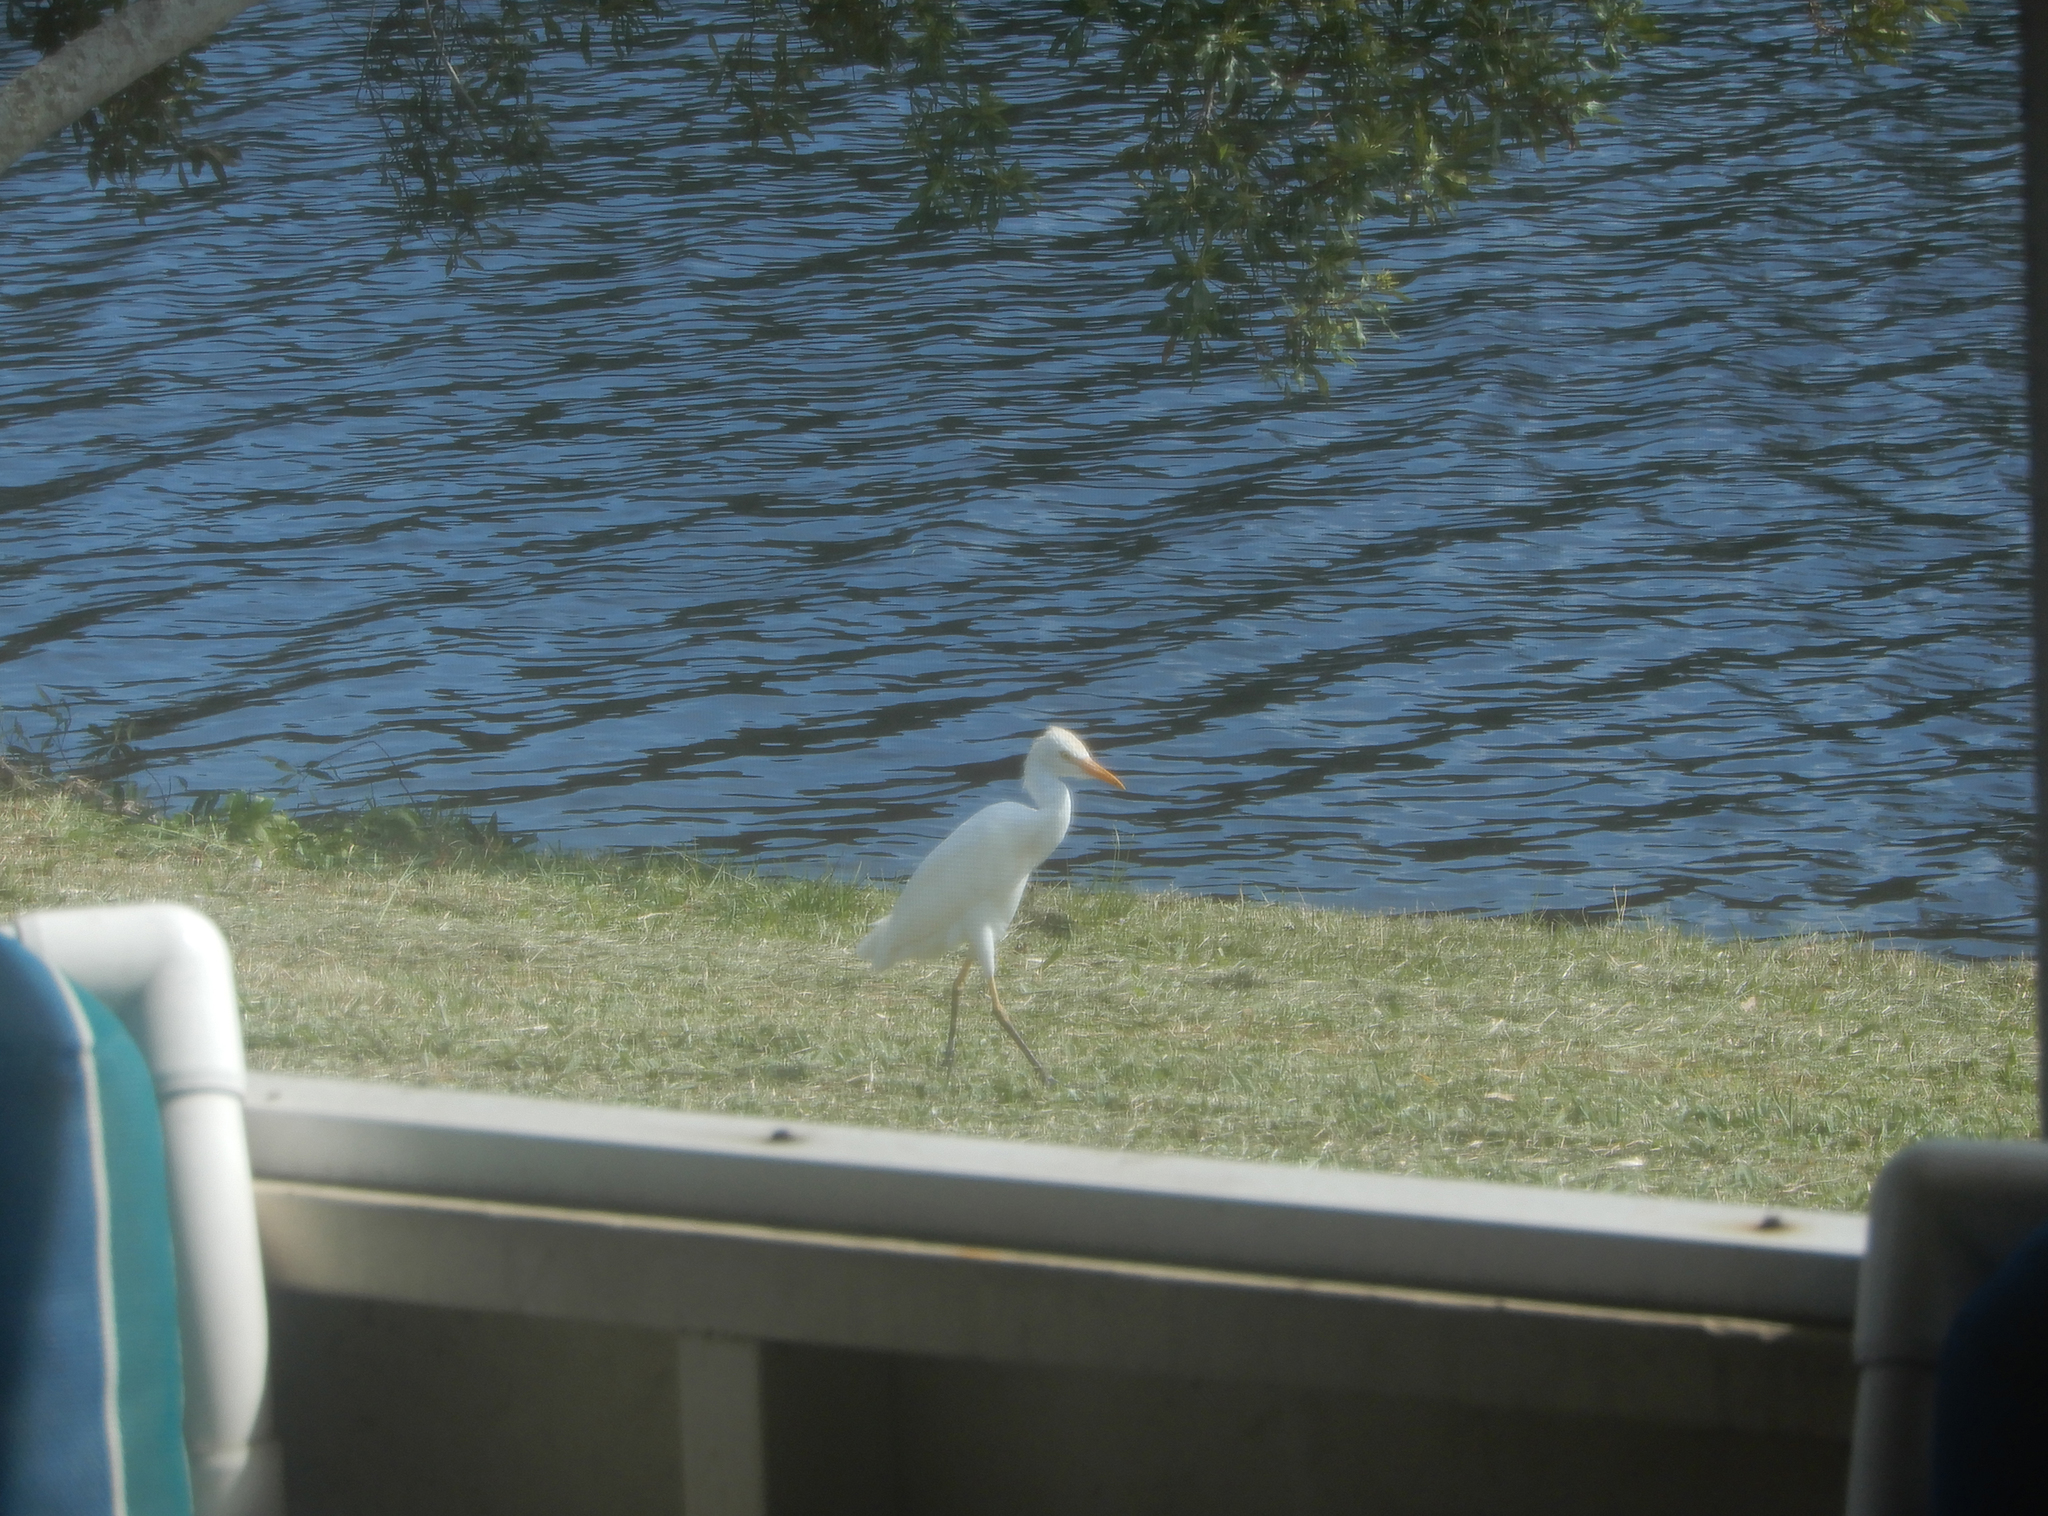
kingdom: Animalia
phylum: Chordata
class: Aves
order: Pelecaniformes
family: Ardeidae
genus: Bubulcus
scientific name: Bubulcus ibis
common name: Cattle egret
